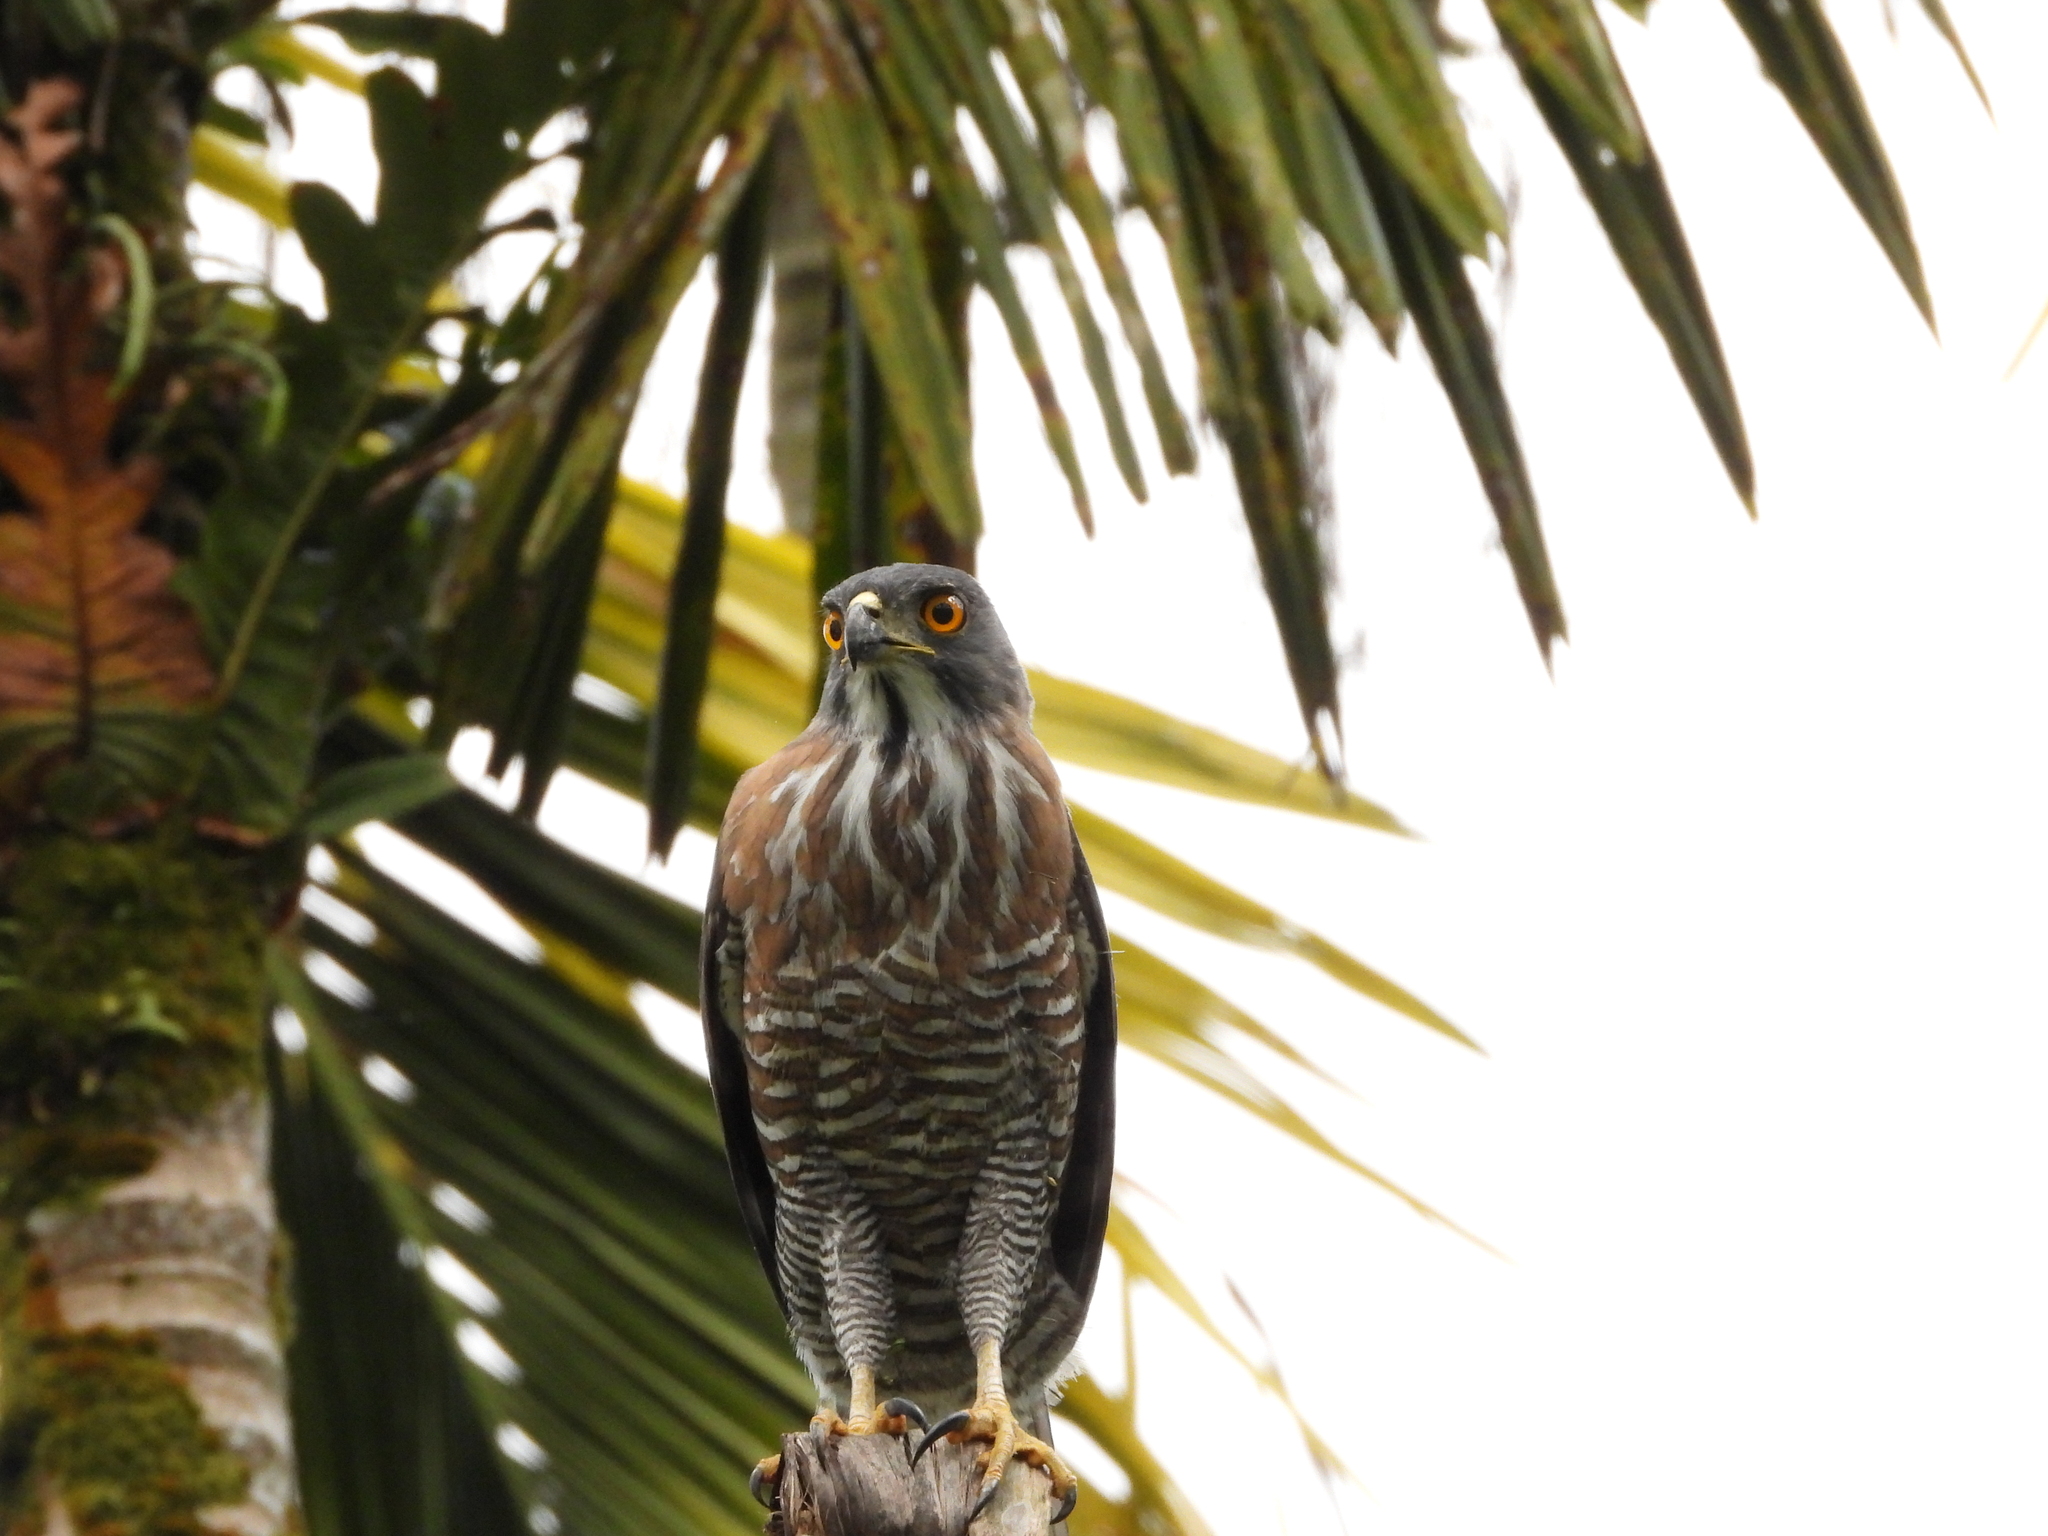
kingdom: Animalia
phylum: Chordata
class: Aves
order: Accipitriformes
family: Accipitridae
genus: Accipiter
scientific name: Accipiter trivirgatus
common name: Crested goshawk
